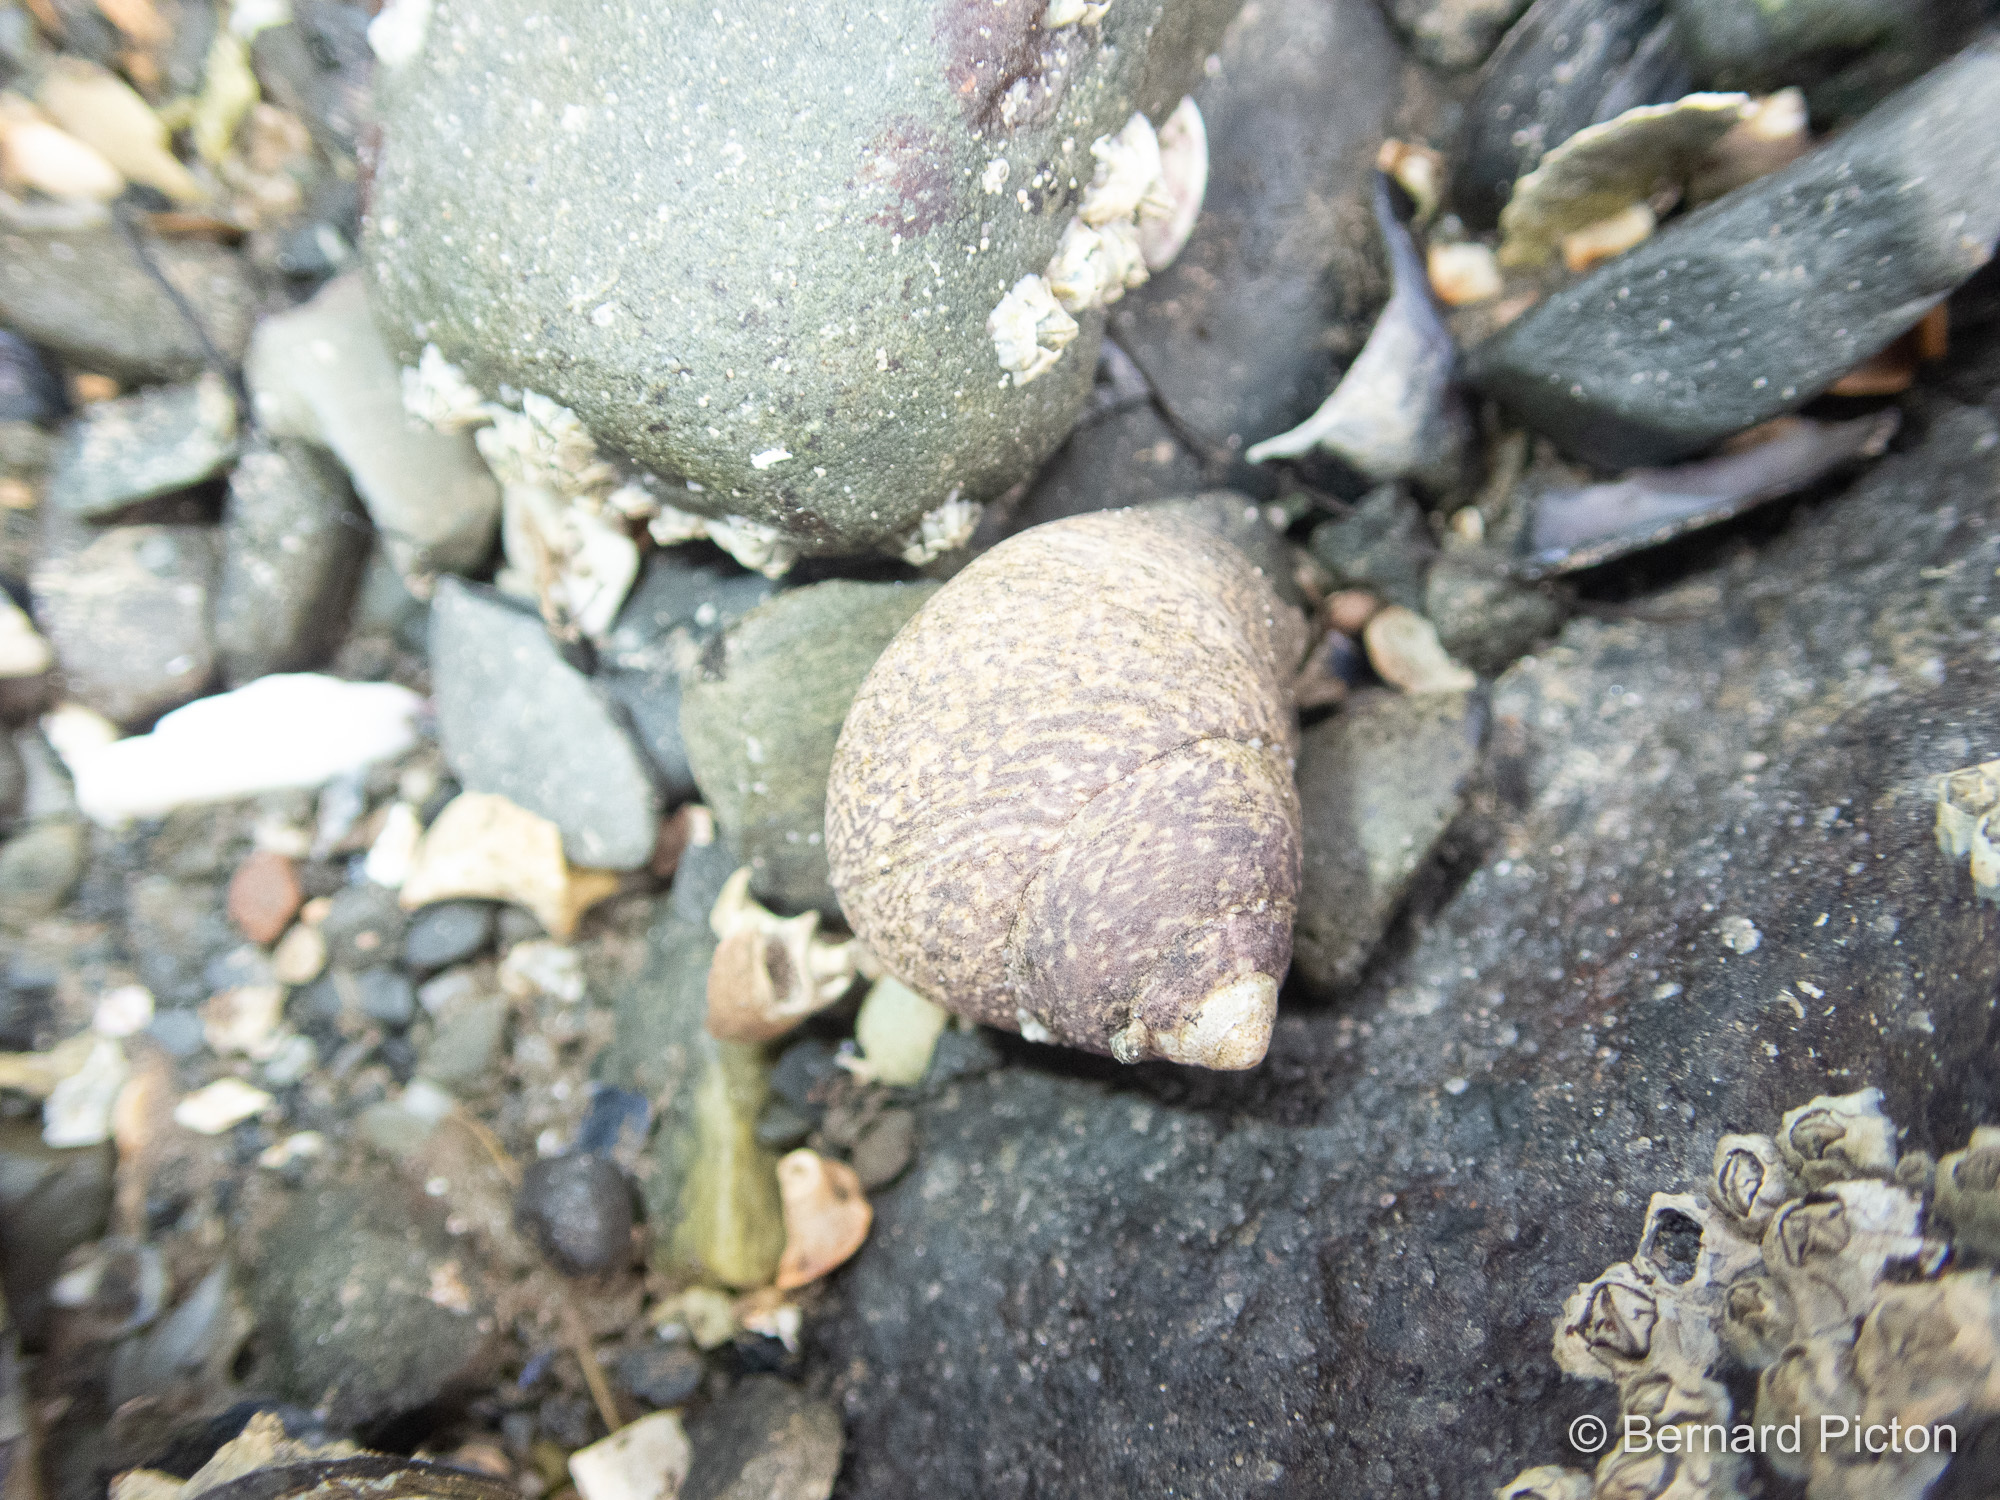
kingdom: Animalia
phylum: Mollusca
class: Gastropoda
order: Trochida
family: Trochidae
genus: Phorcus
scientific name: Phorcus lineatus
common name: Toothed top shell
